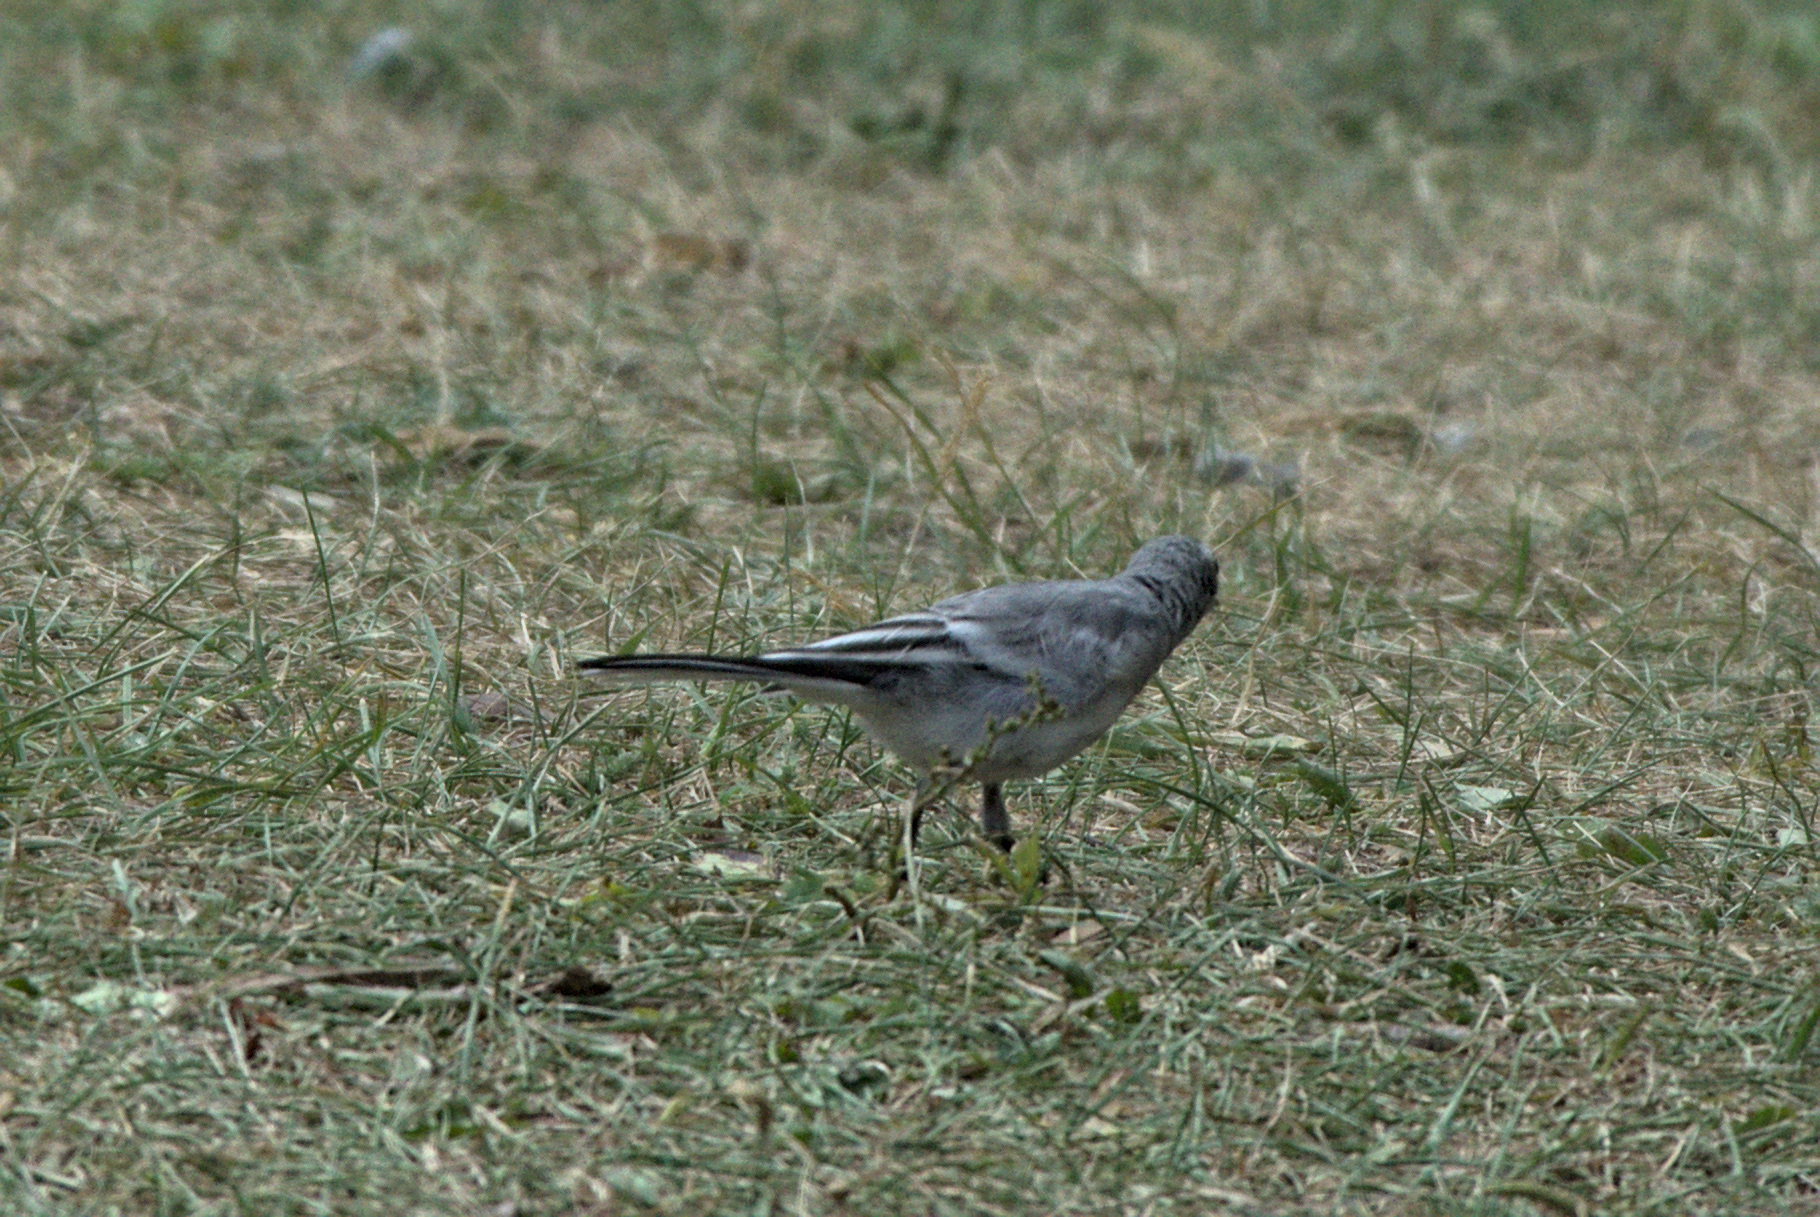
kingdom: Animalia
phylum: Chordata
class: Aves
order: Passeriformes
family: Motacillidae
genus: Motacilla
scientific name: Motacilla alba
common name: White wagtail
